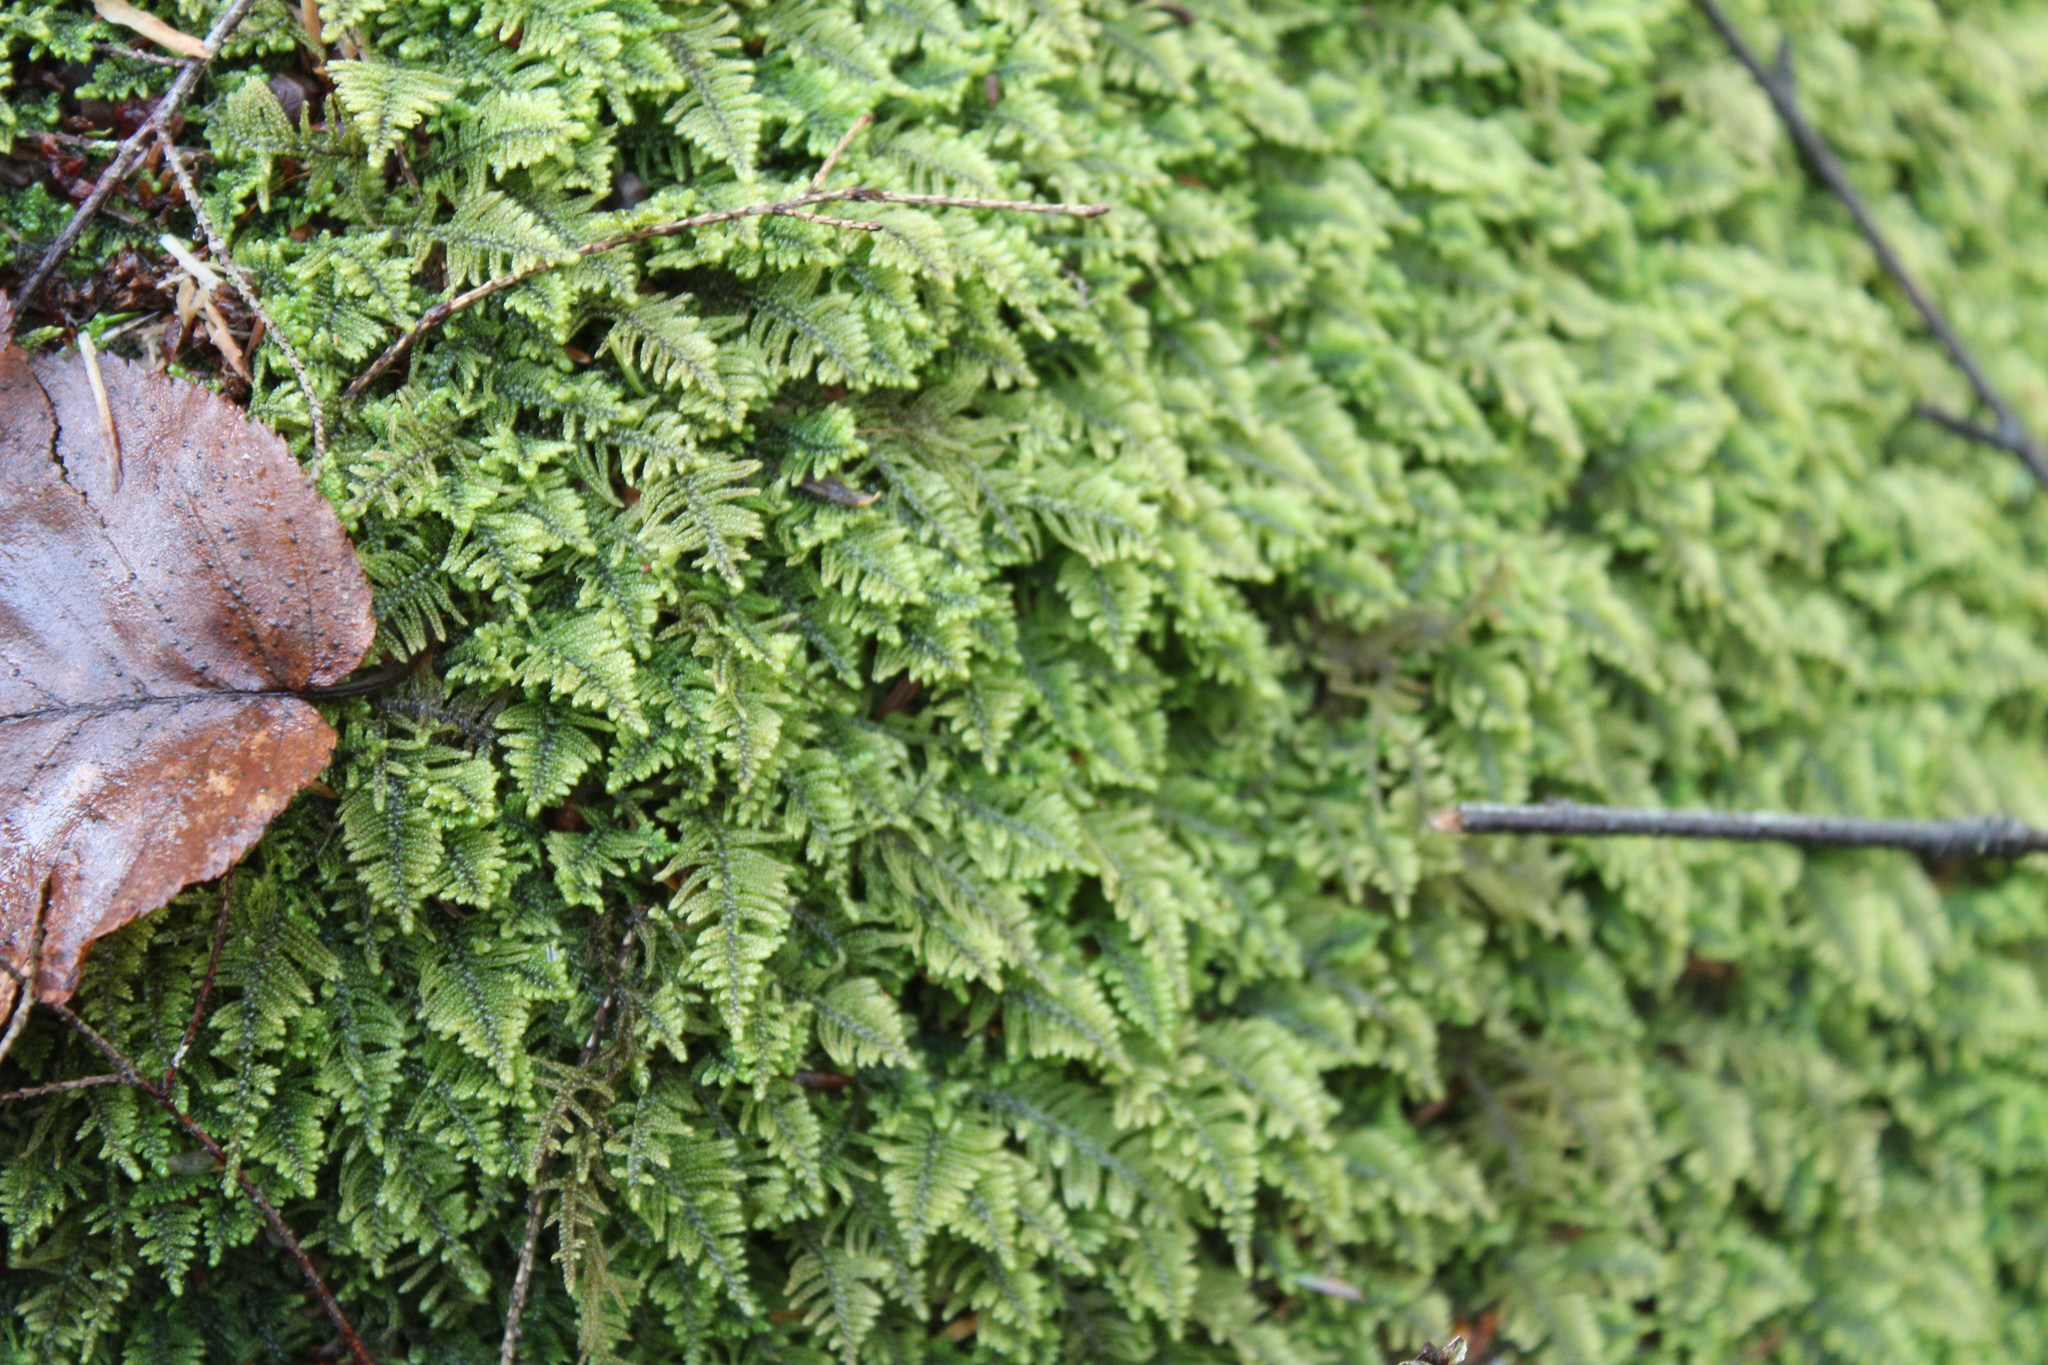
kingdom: Plantae
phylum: Bryophyta
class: Bryopsida
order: Hypnales
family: Callicladiaceae
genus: Callicladium
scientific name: Callicladium imponens
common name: Brocade moss
